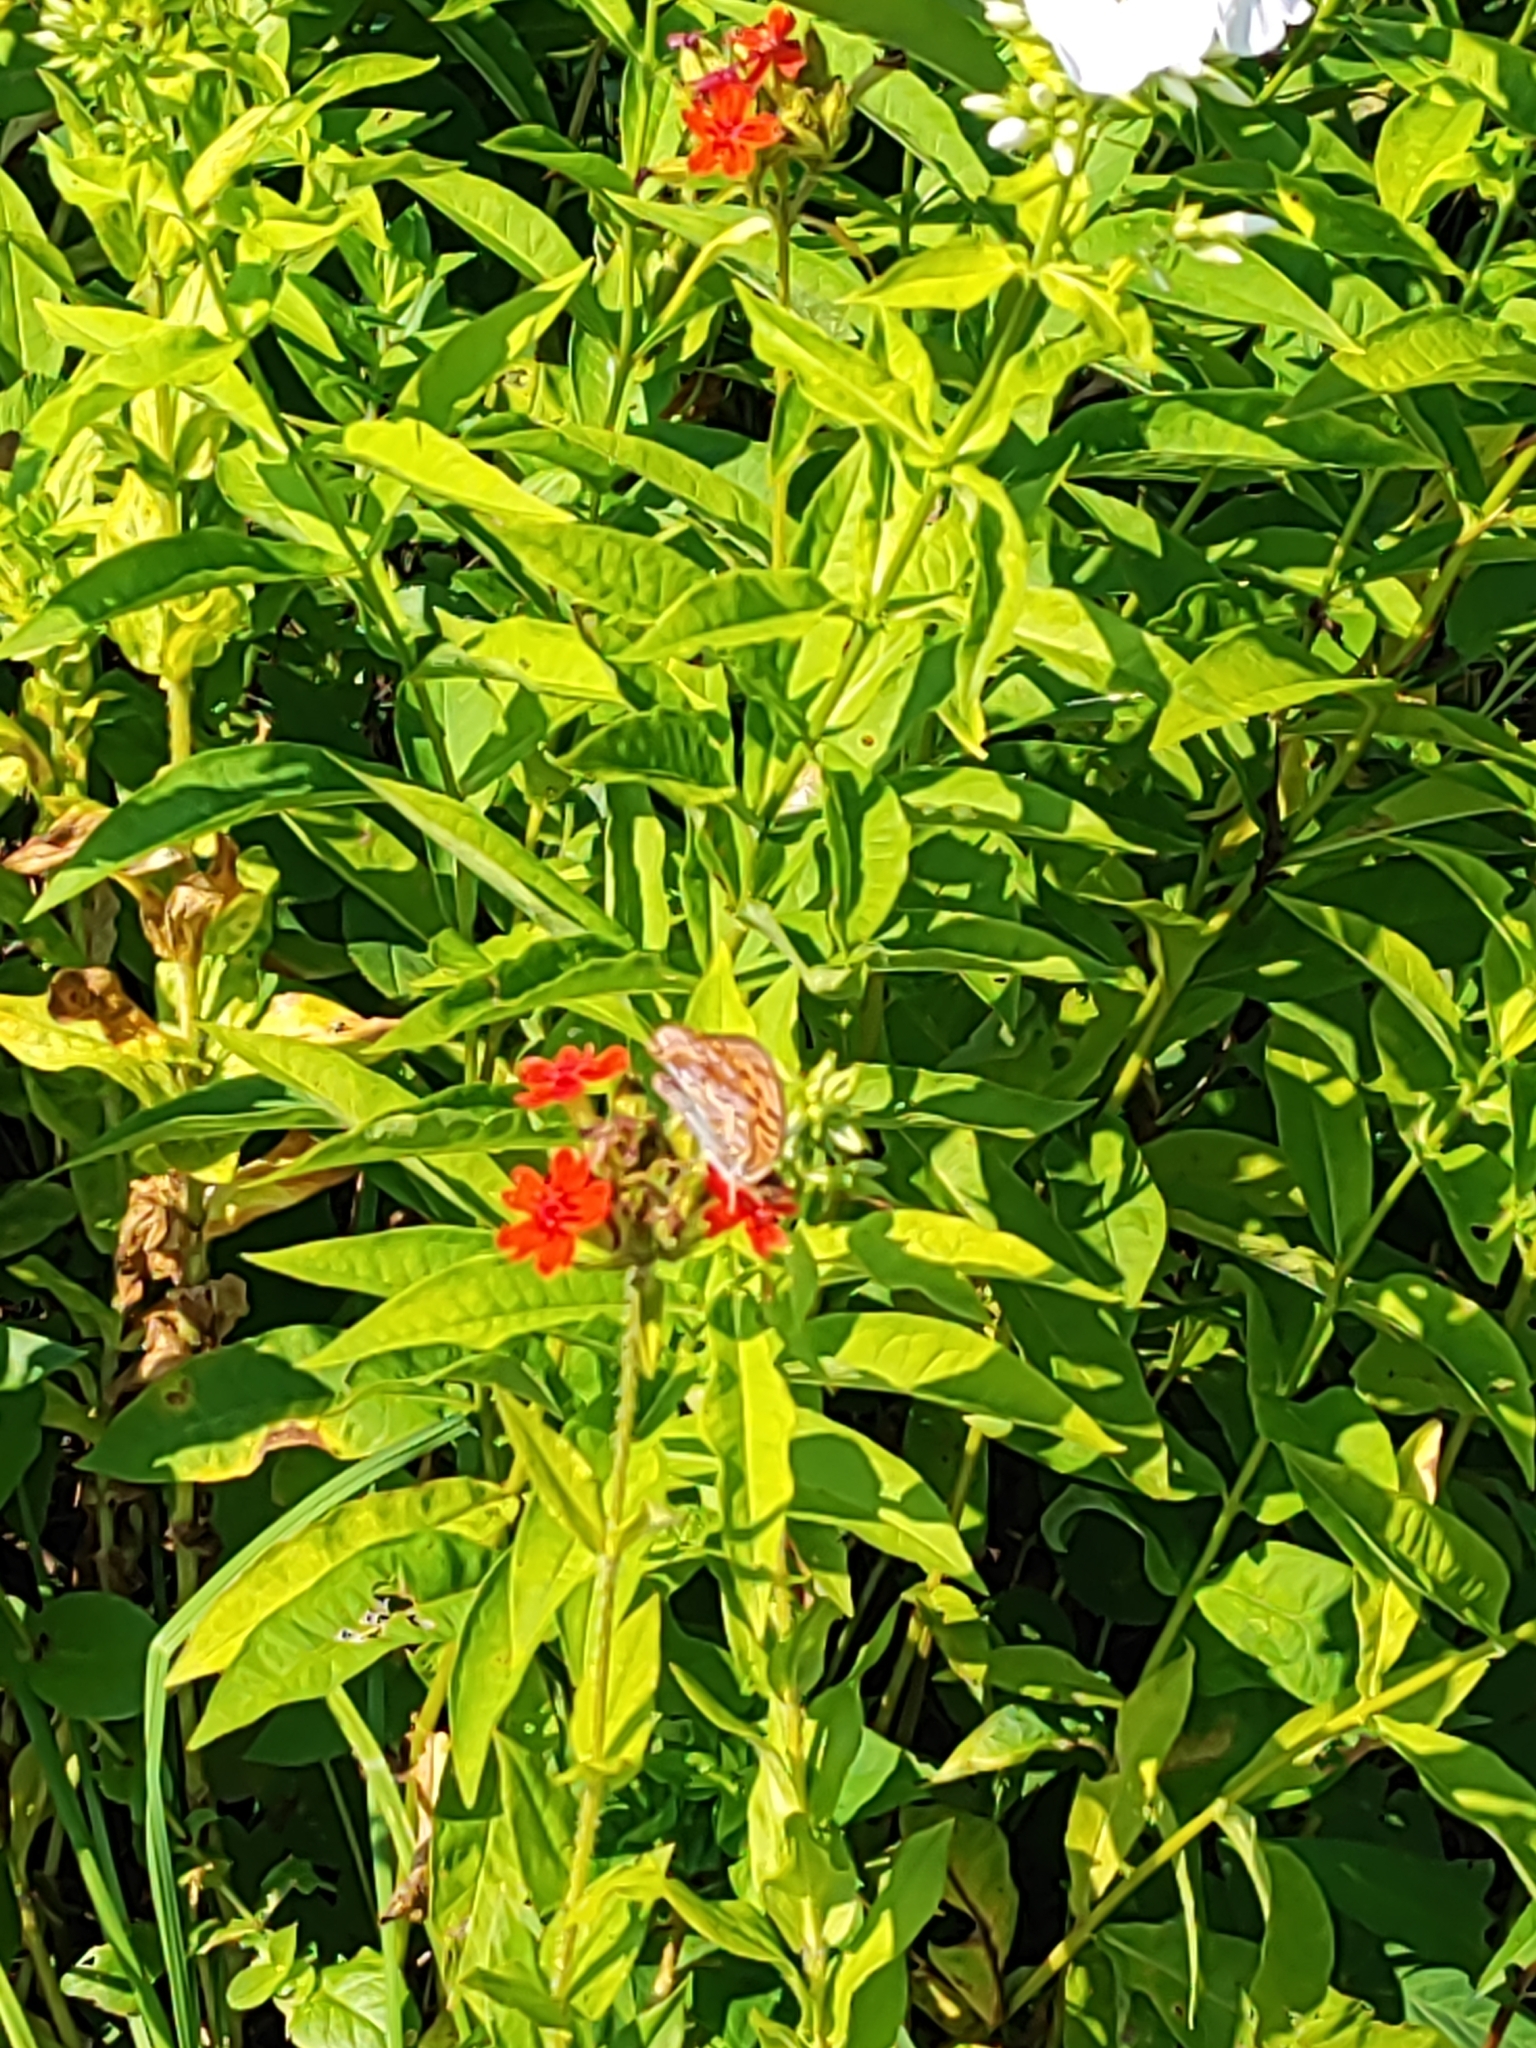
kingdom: Animalia
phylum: Arthropoda
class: Insecta
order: Lepidoptera
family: Nymphalidae
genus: Fabriciana
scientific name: Fabriciana adippe
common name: High brown fritillary
